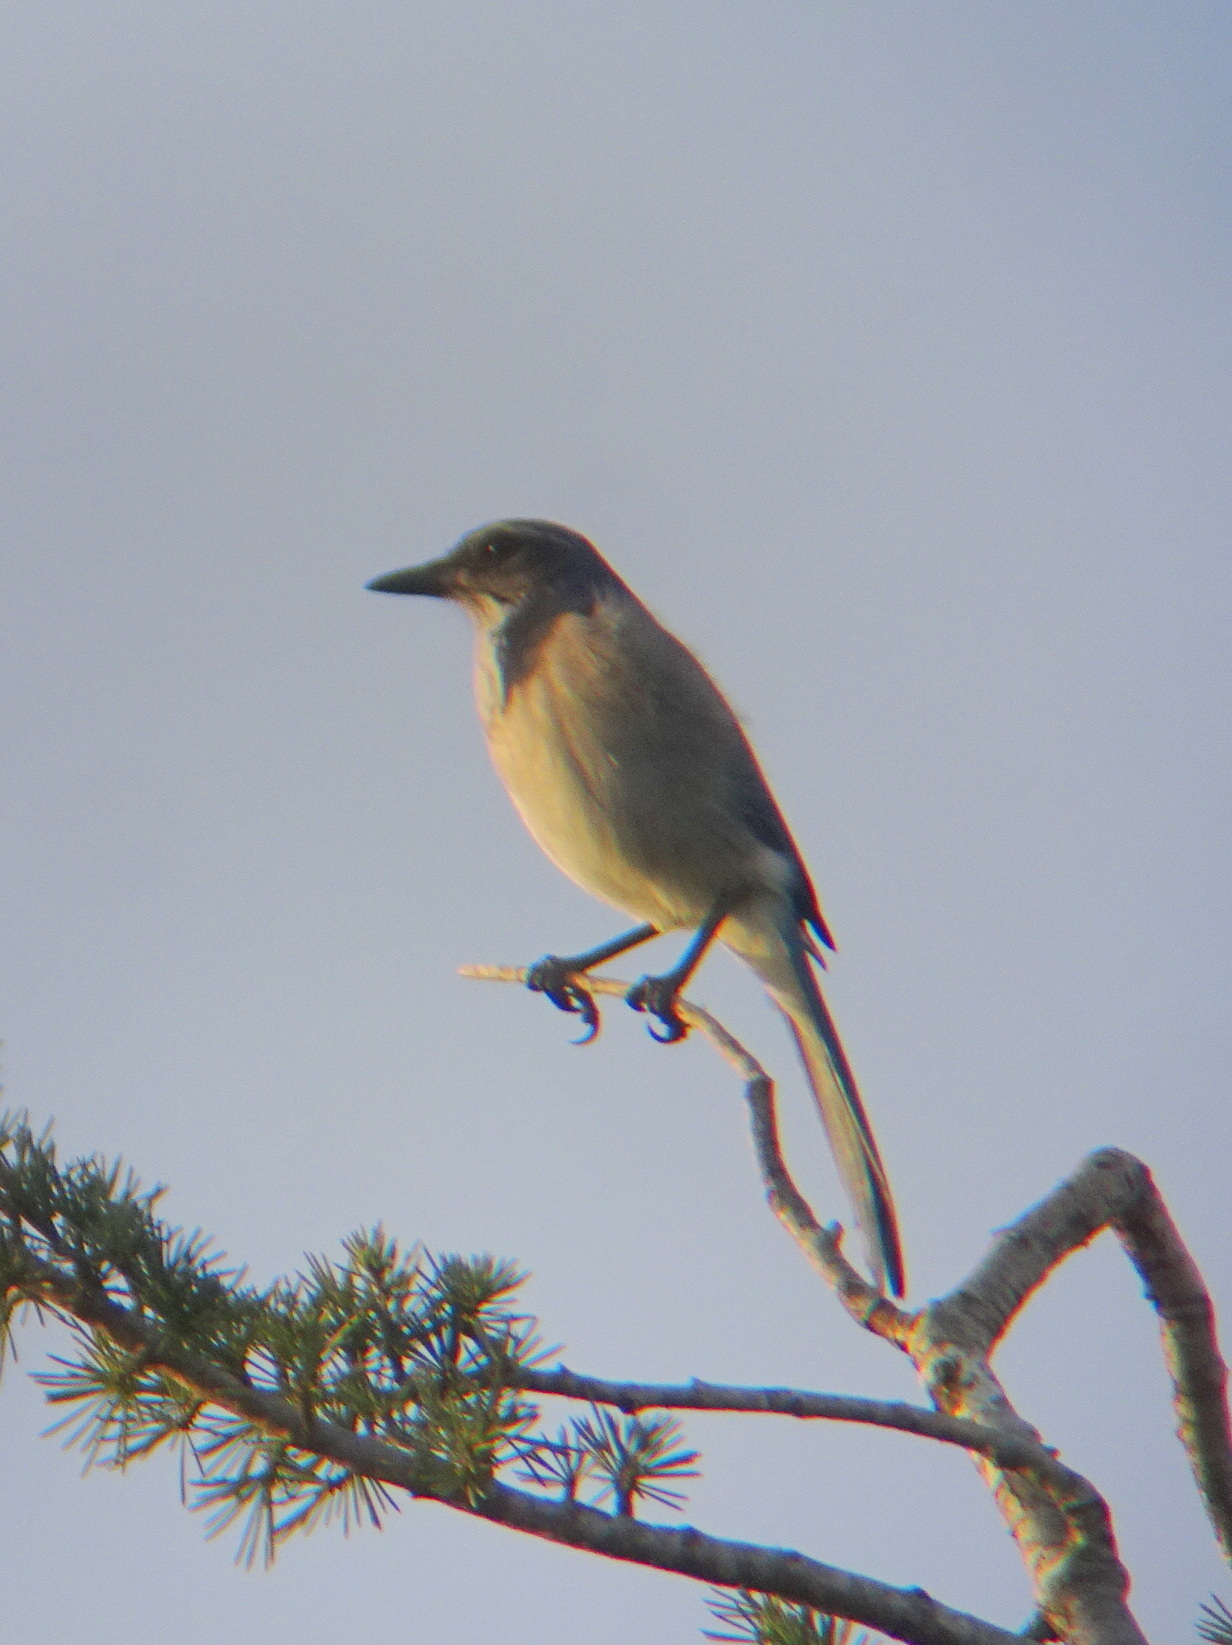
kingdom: Animalia
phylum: Chordata
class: Aves
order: Passeriformes
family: Corvidae
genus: Aphelocoma
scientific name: Aphelocoma californica
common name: California scrub-jay
